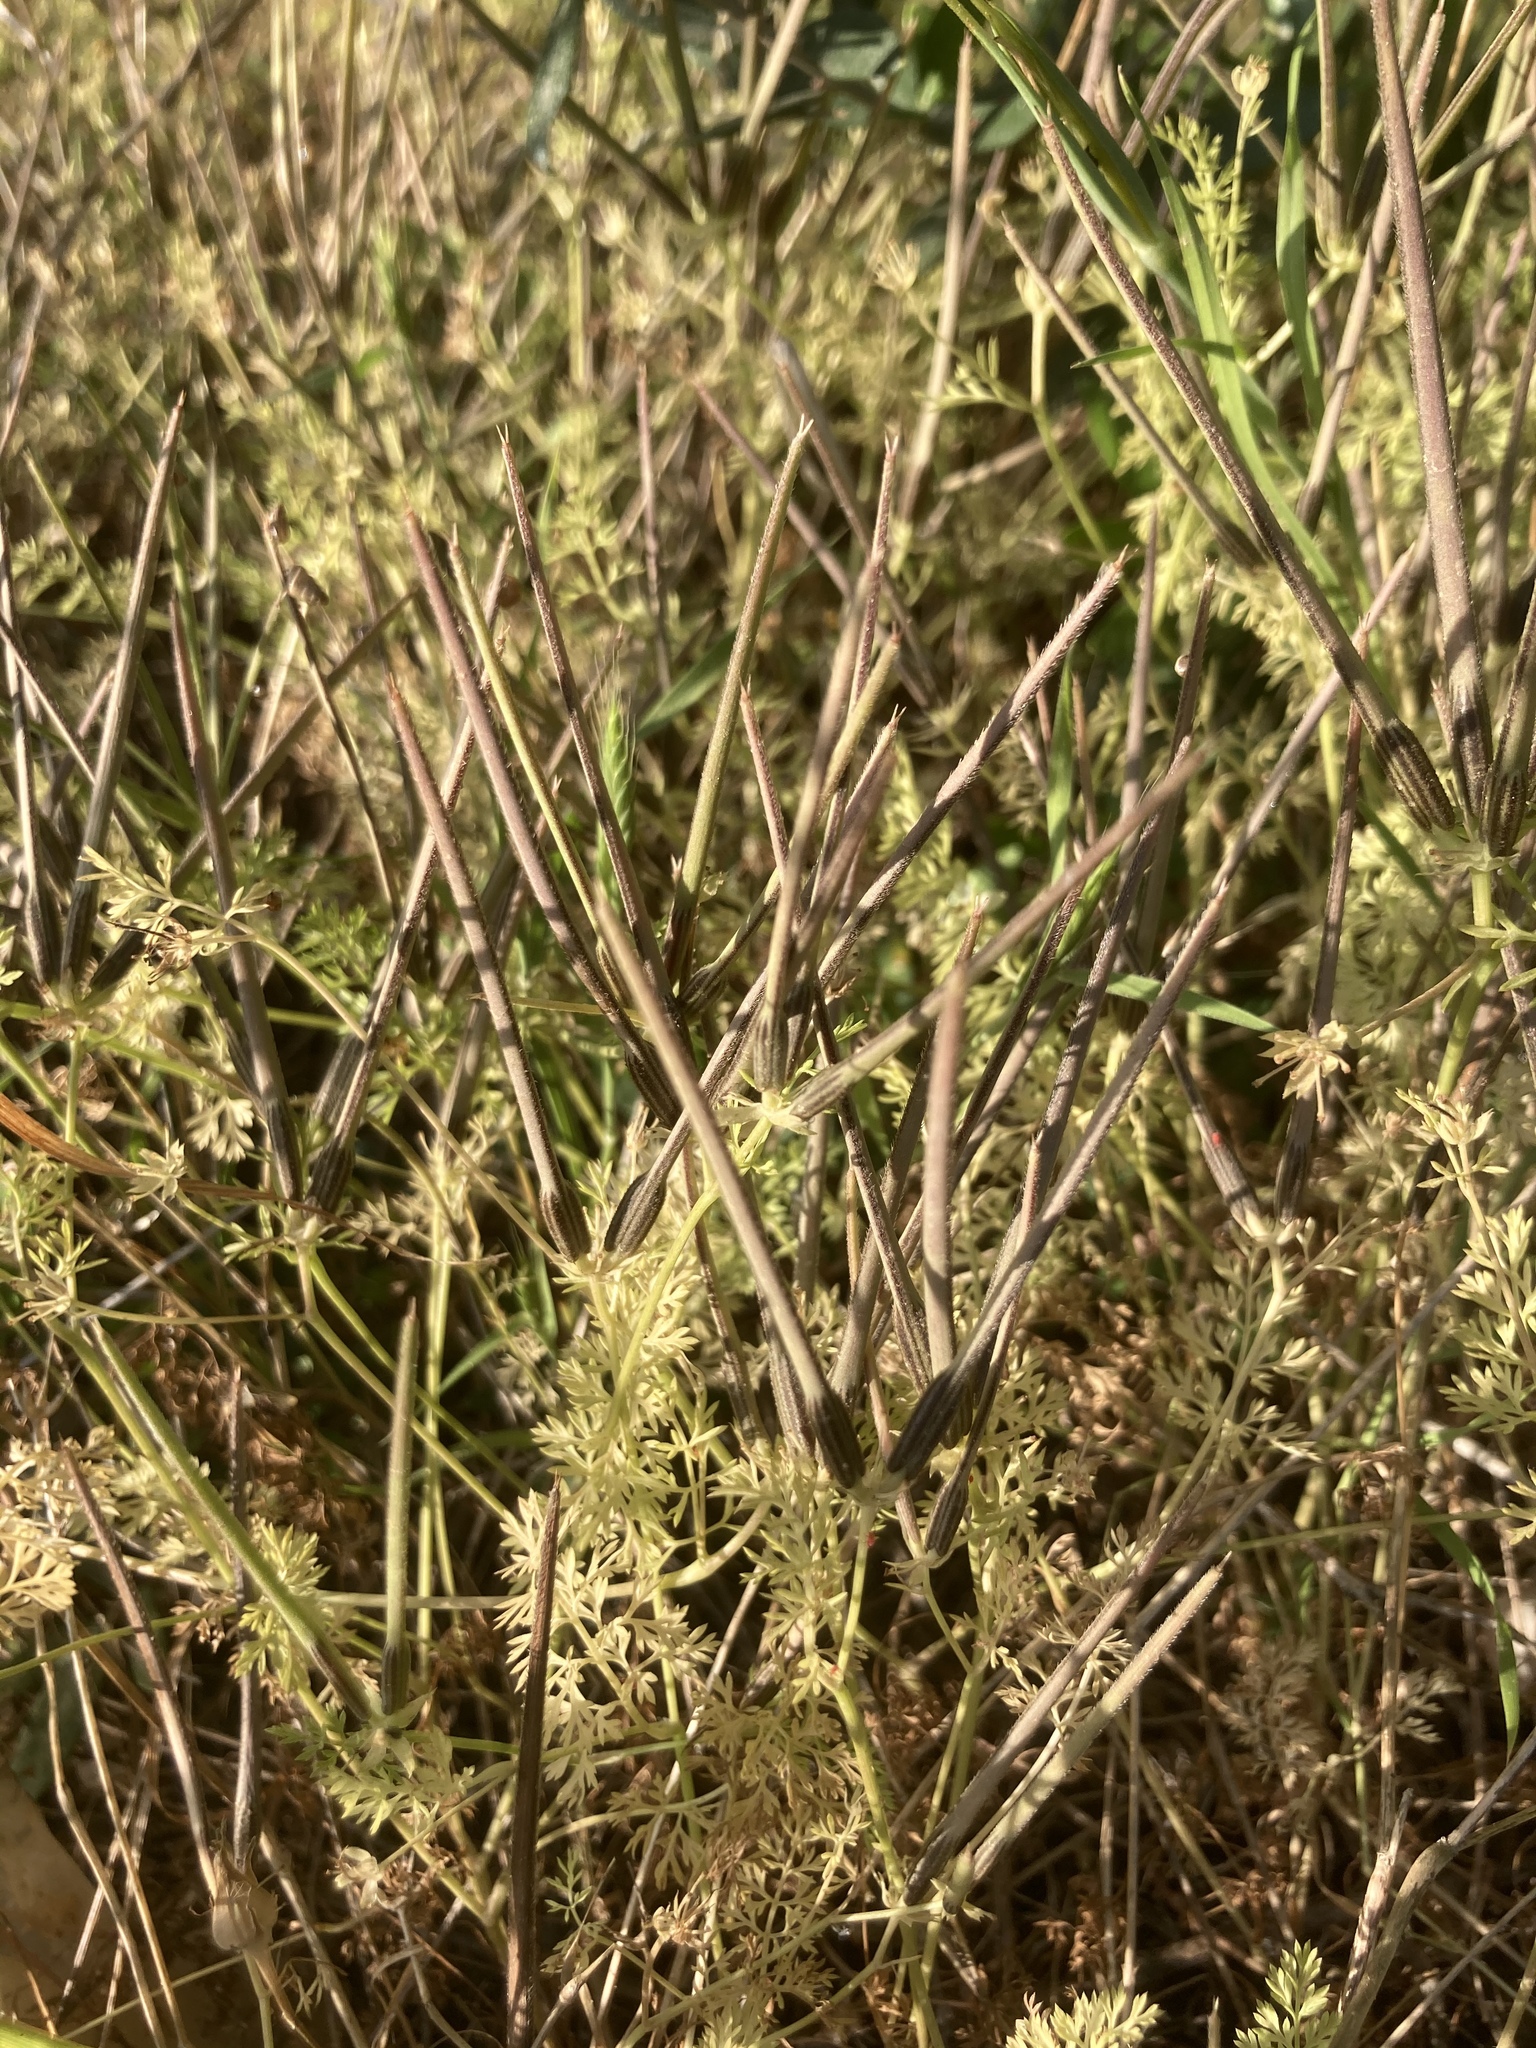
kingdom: Plantae
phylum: Tracheophyta
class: Magnoliopsida
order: Apiales
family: Apiaceae
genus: Scandix
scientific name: Scandix pecten-veneris
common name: Shepherd's-needle
